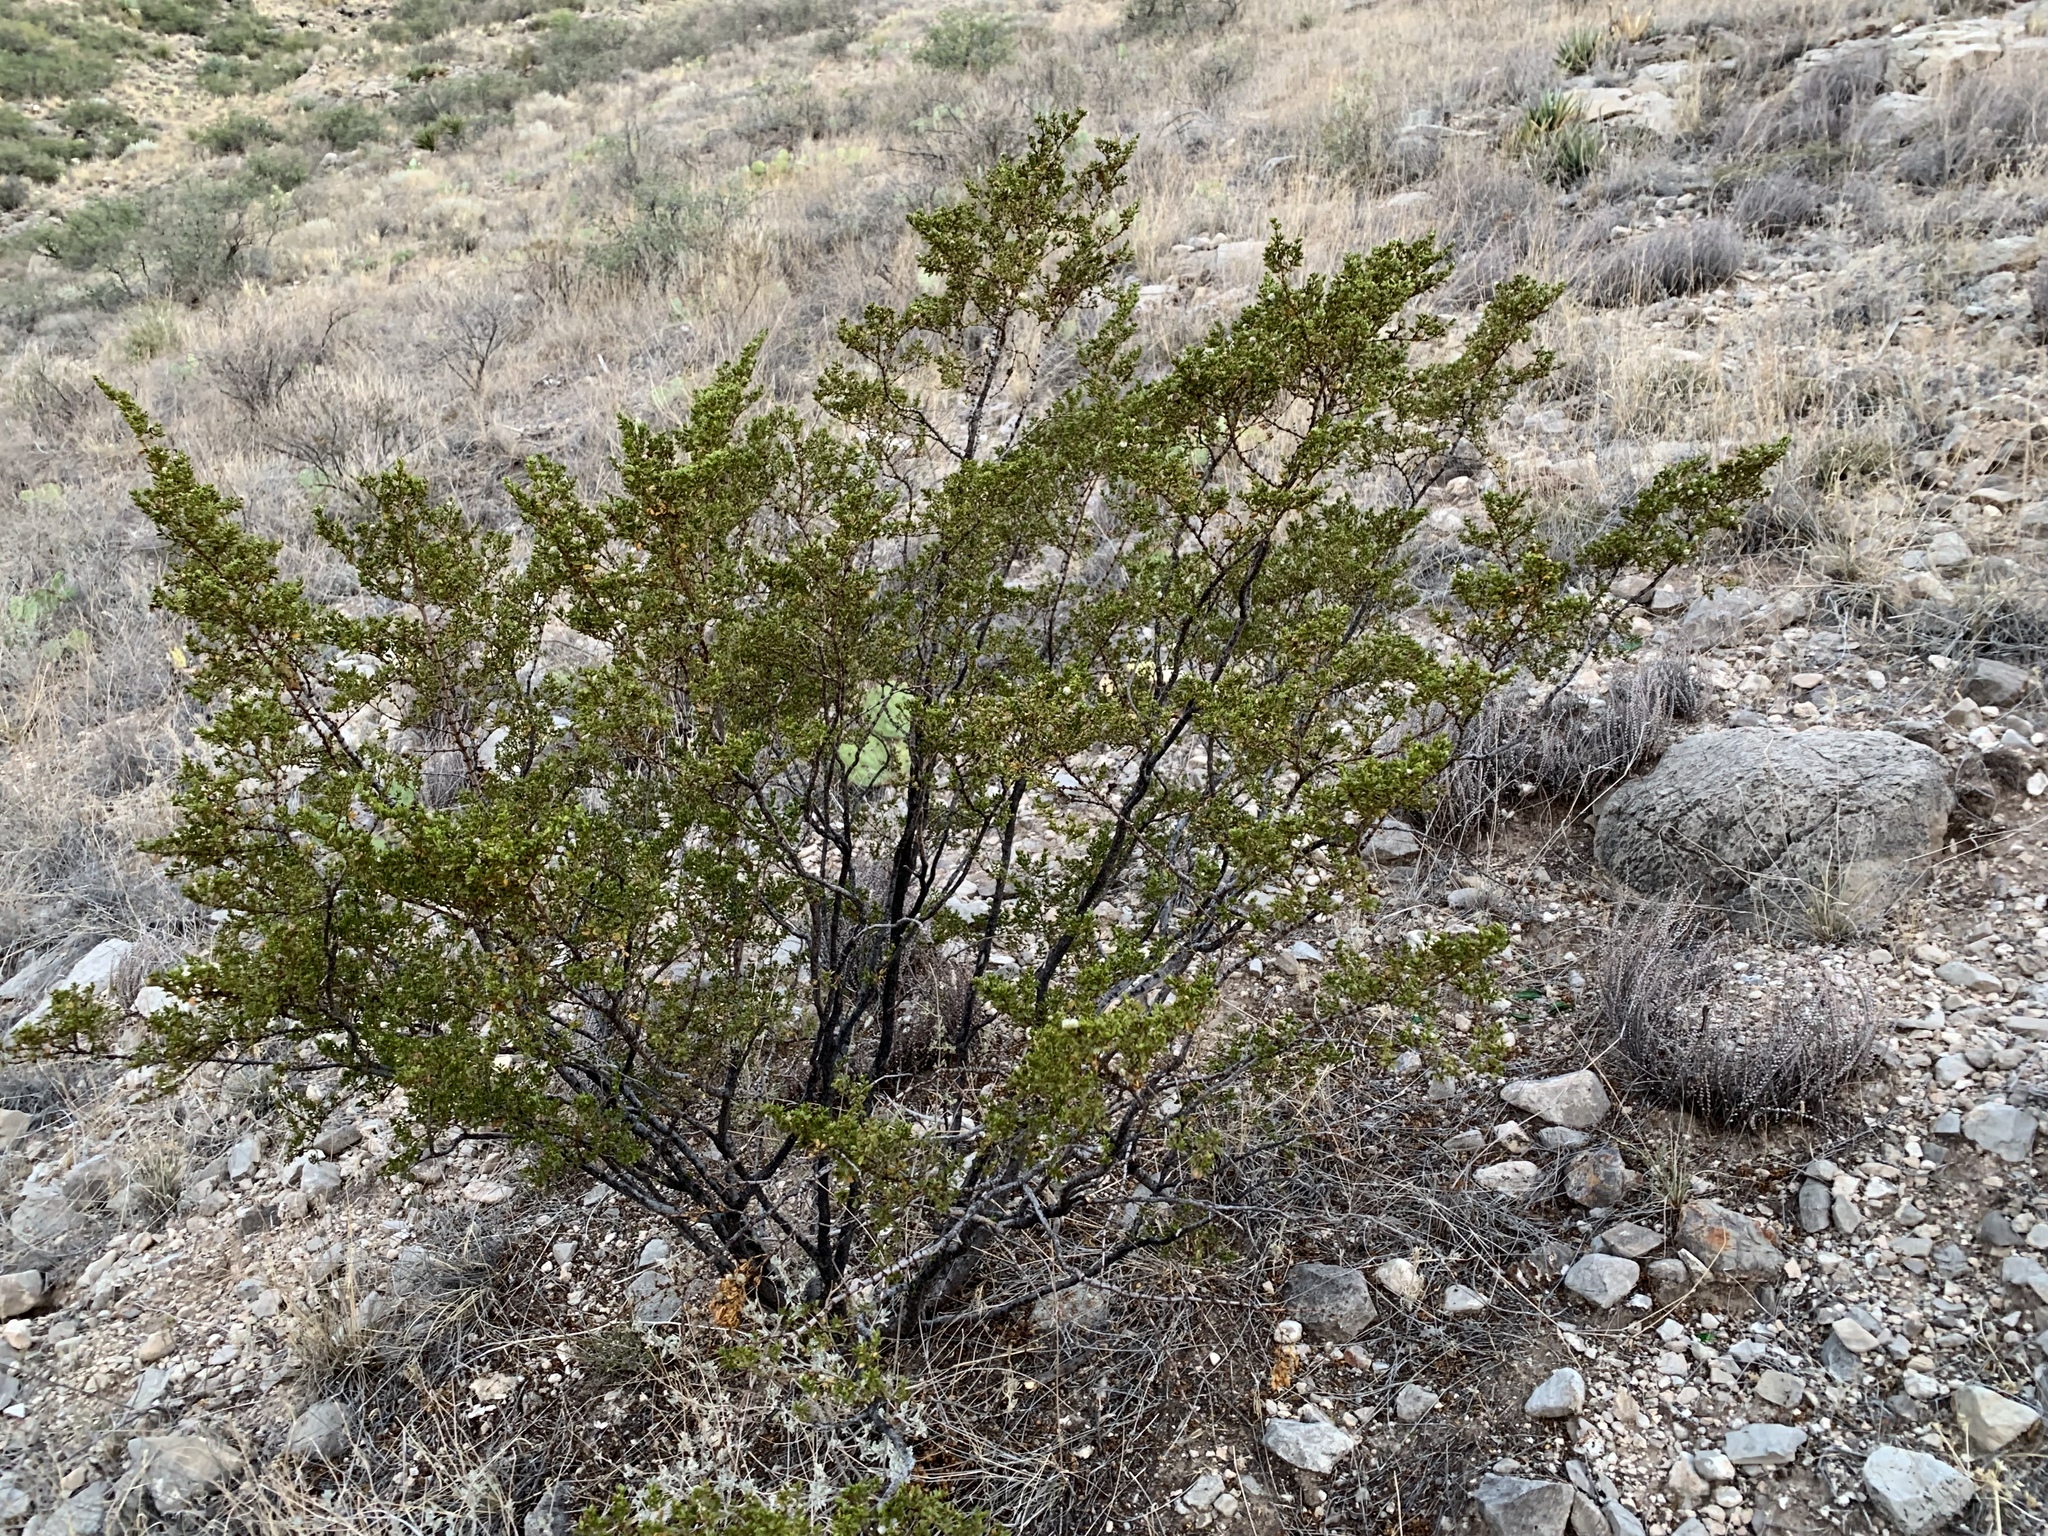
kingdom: Plantae
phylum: Tracheophyta
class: Magnoliopsida
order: Zygophyllales
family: Zygophyllaceae
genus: Larrea
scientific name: Larrea tridentata
